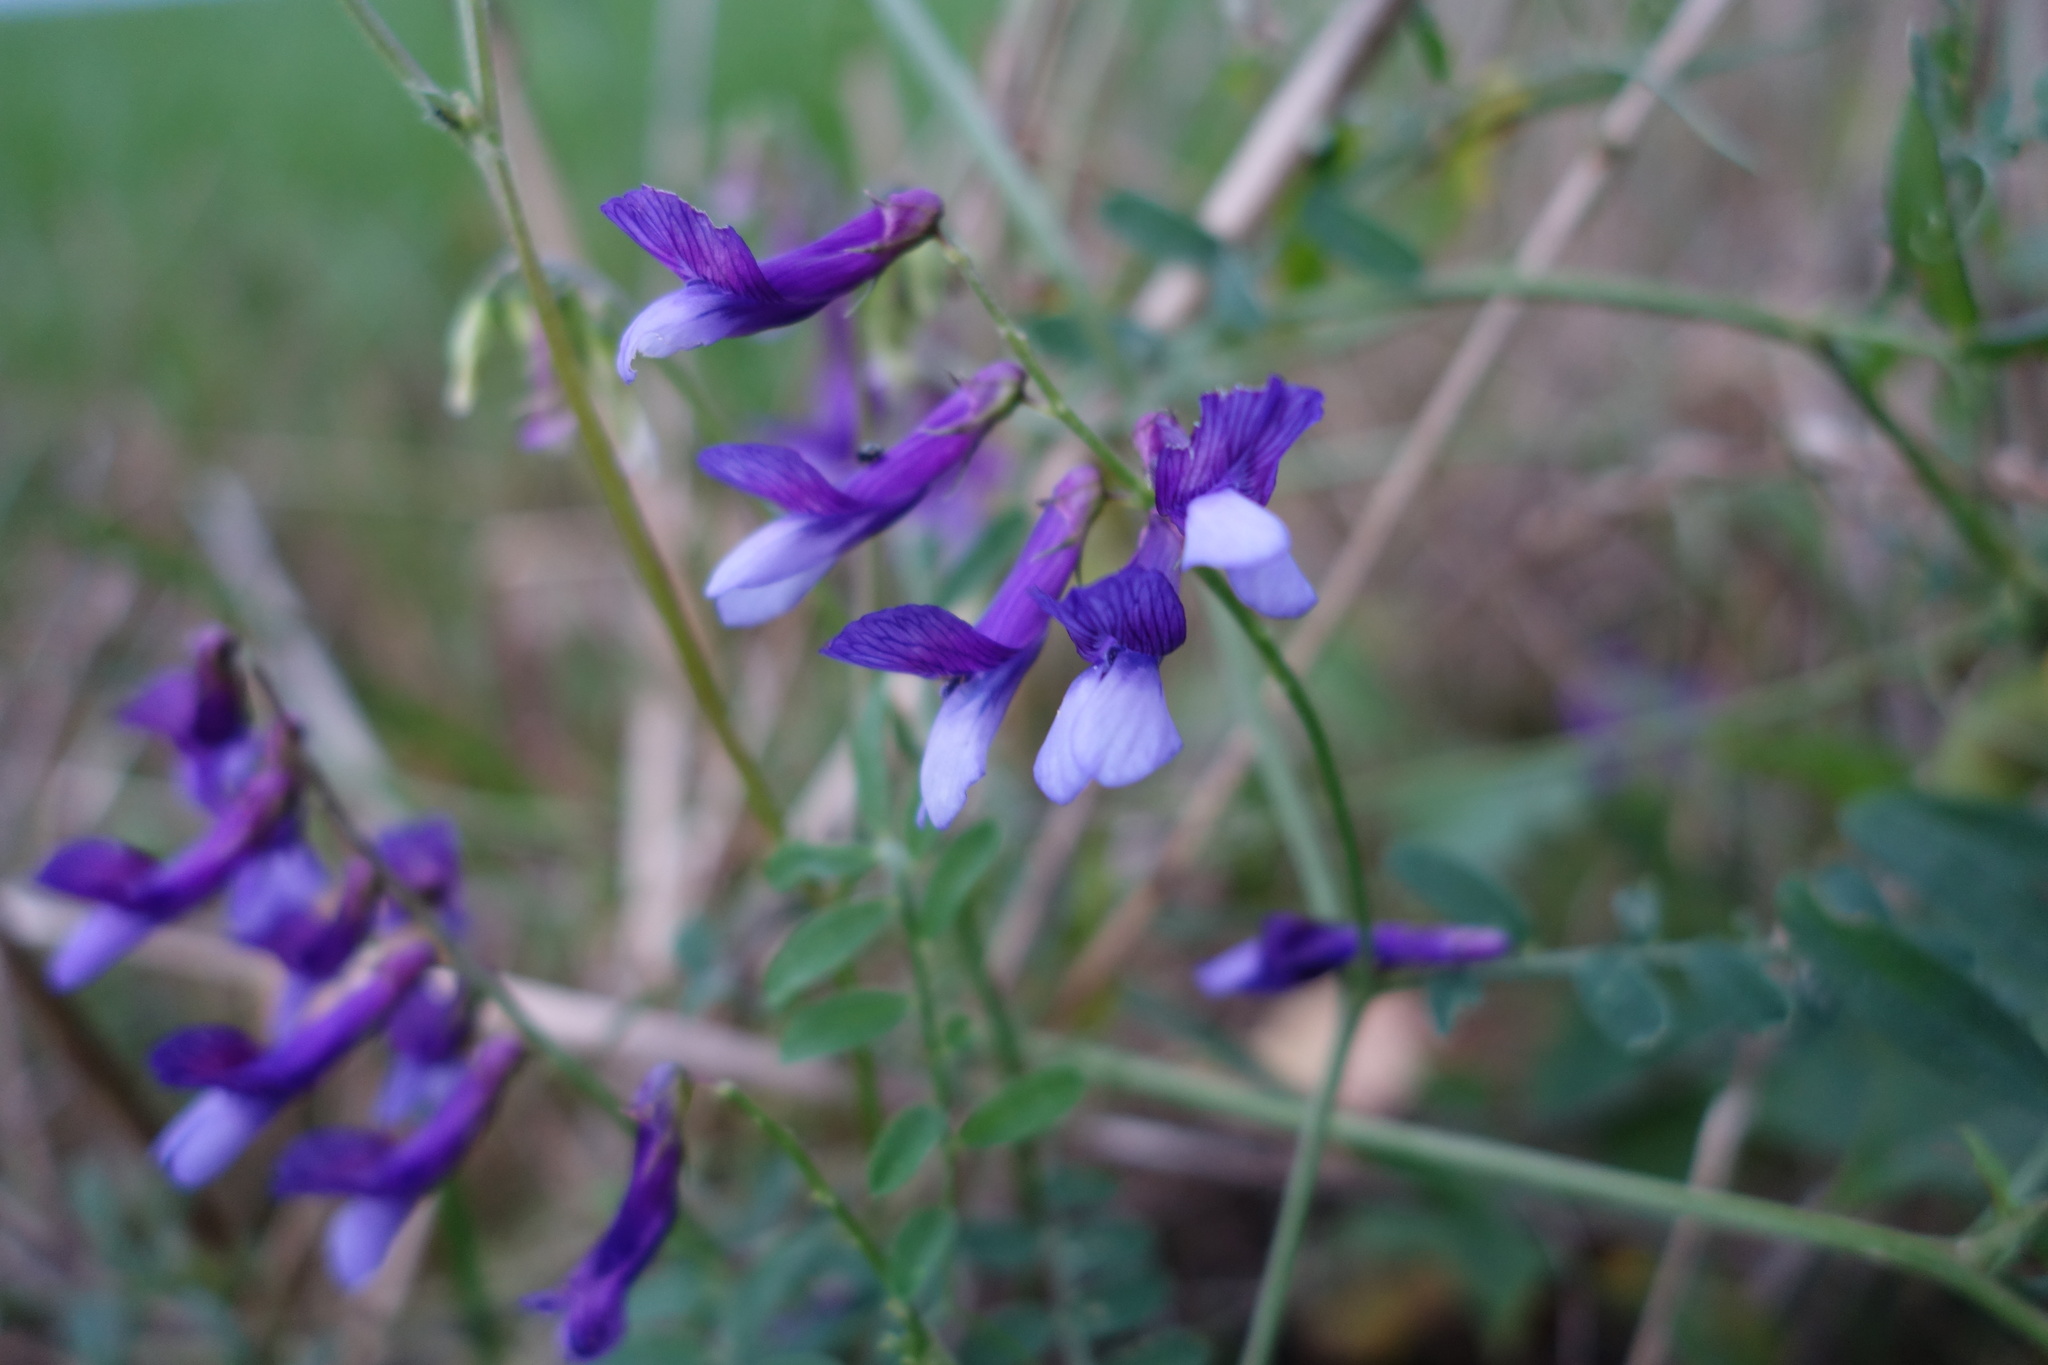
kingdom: Plantae
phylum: Tracheophyta
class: Magnoliopsida
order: Fabales
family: Fabaceae
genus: Vicia
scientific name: Vicia cracca
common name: Bird vetch
